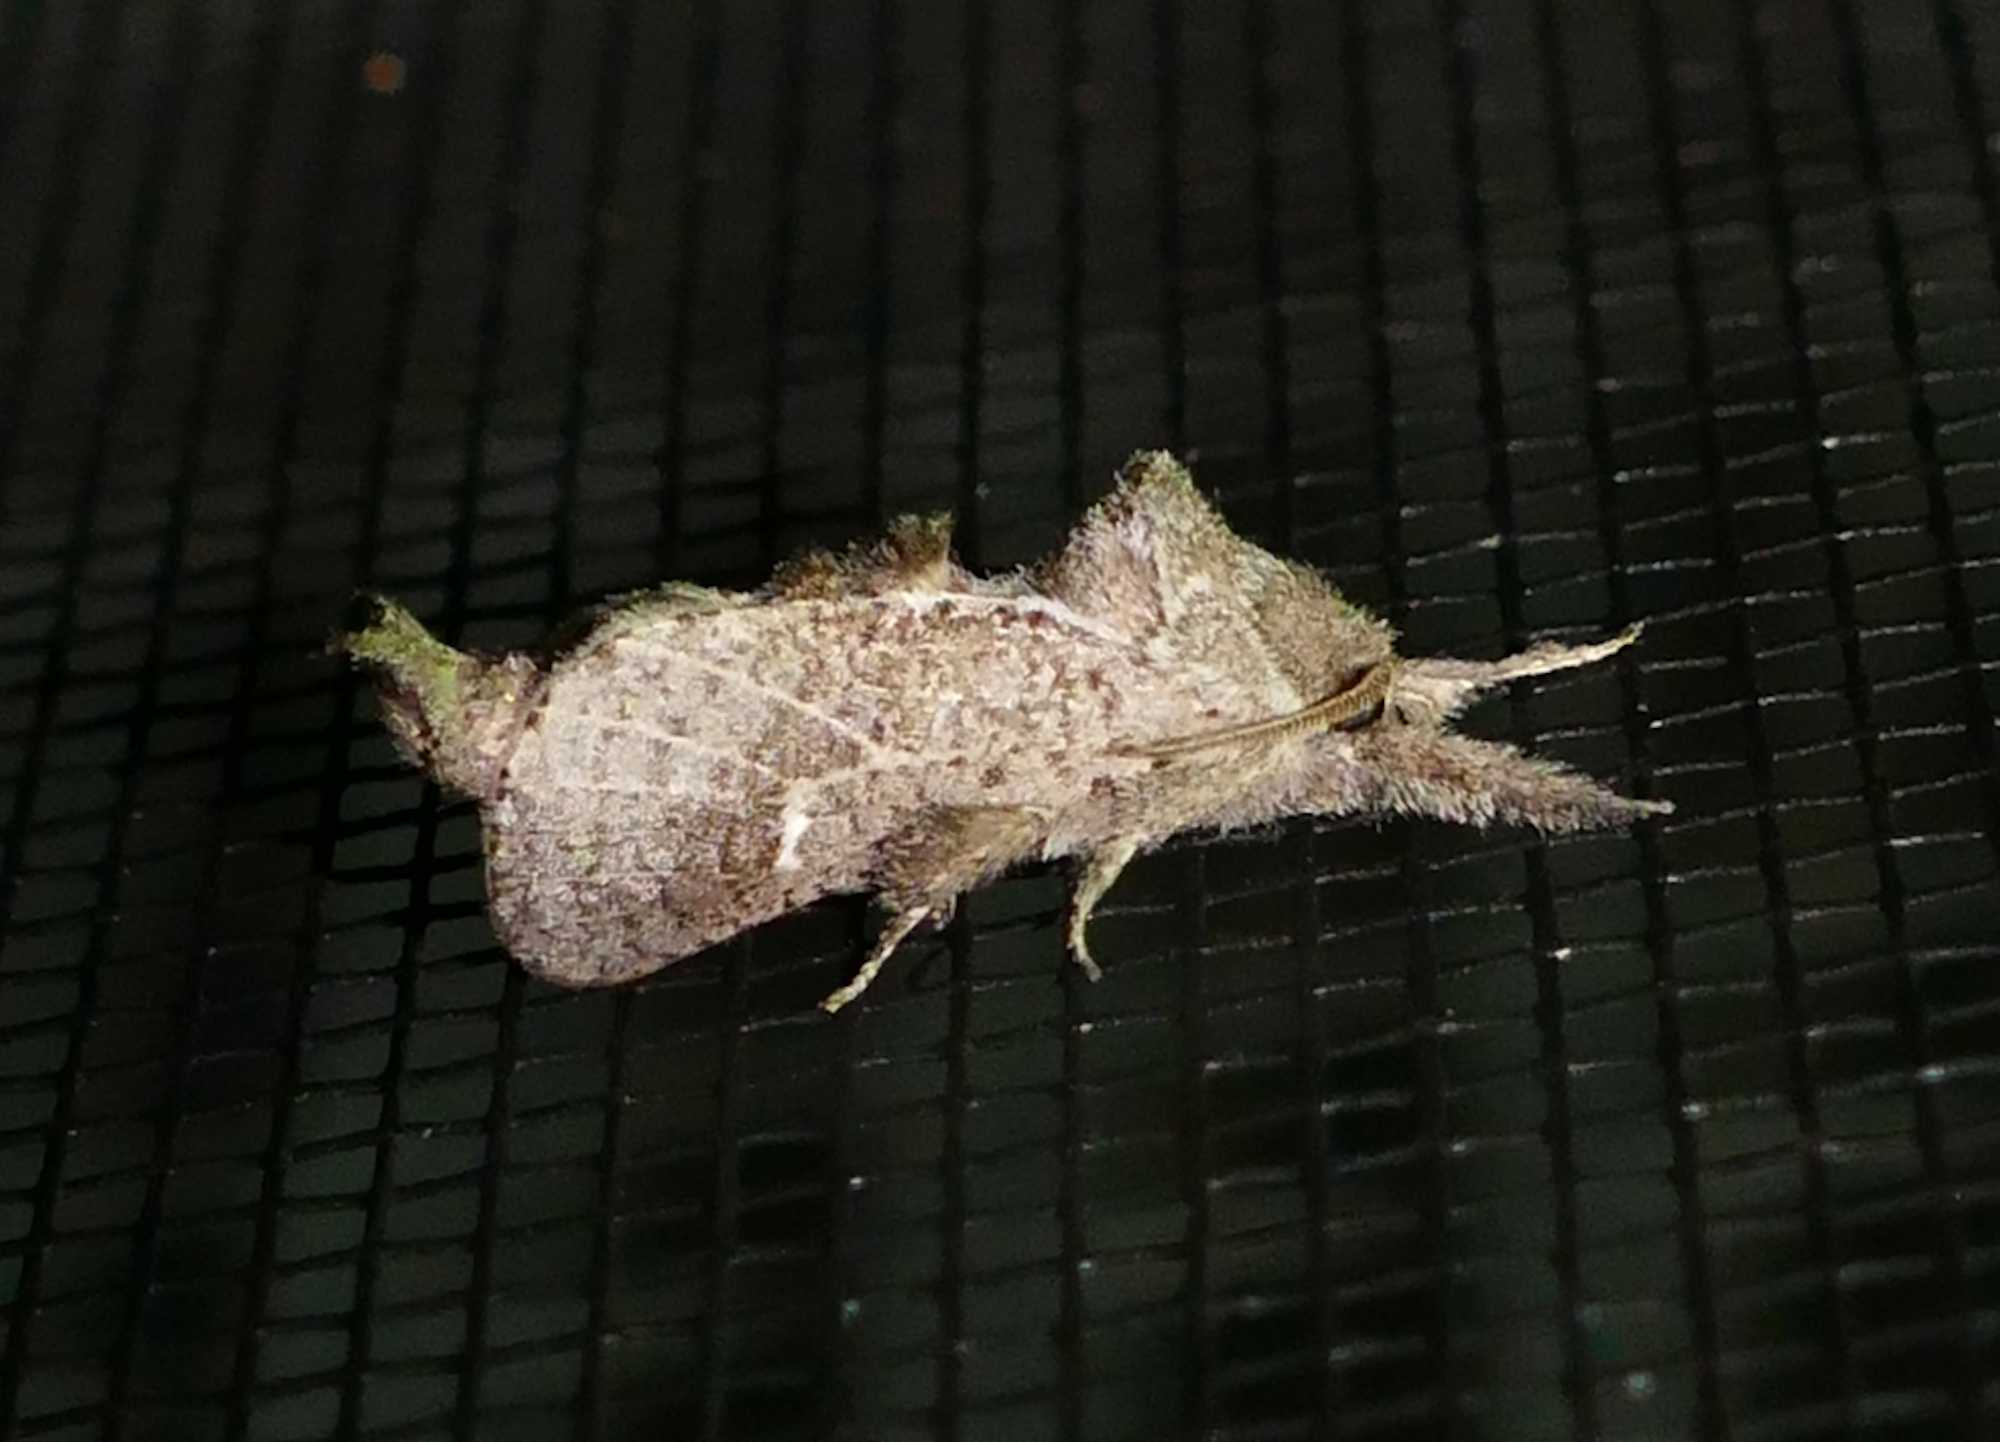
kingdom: Animalia
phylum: Arthropoda
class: Insecta
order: Lepidoptera
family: Cossidae
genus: Givira
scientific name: Givira anna
